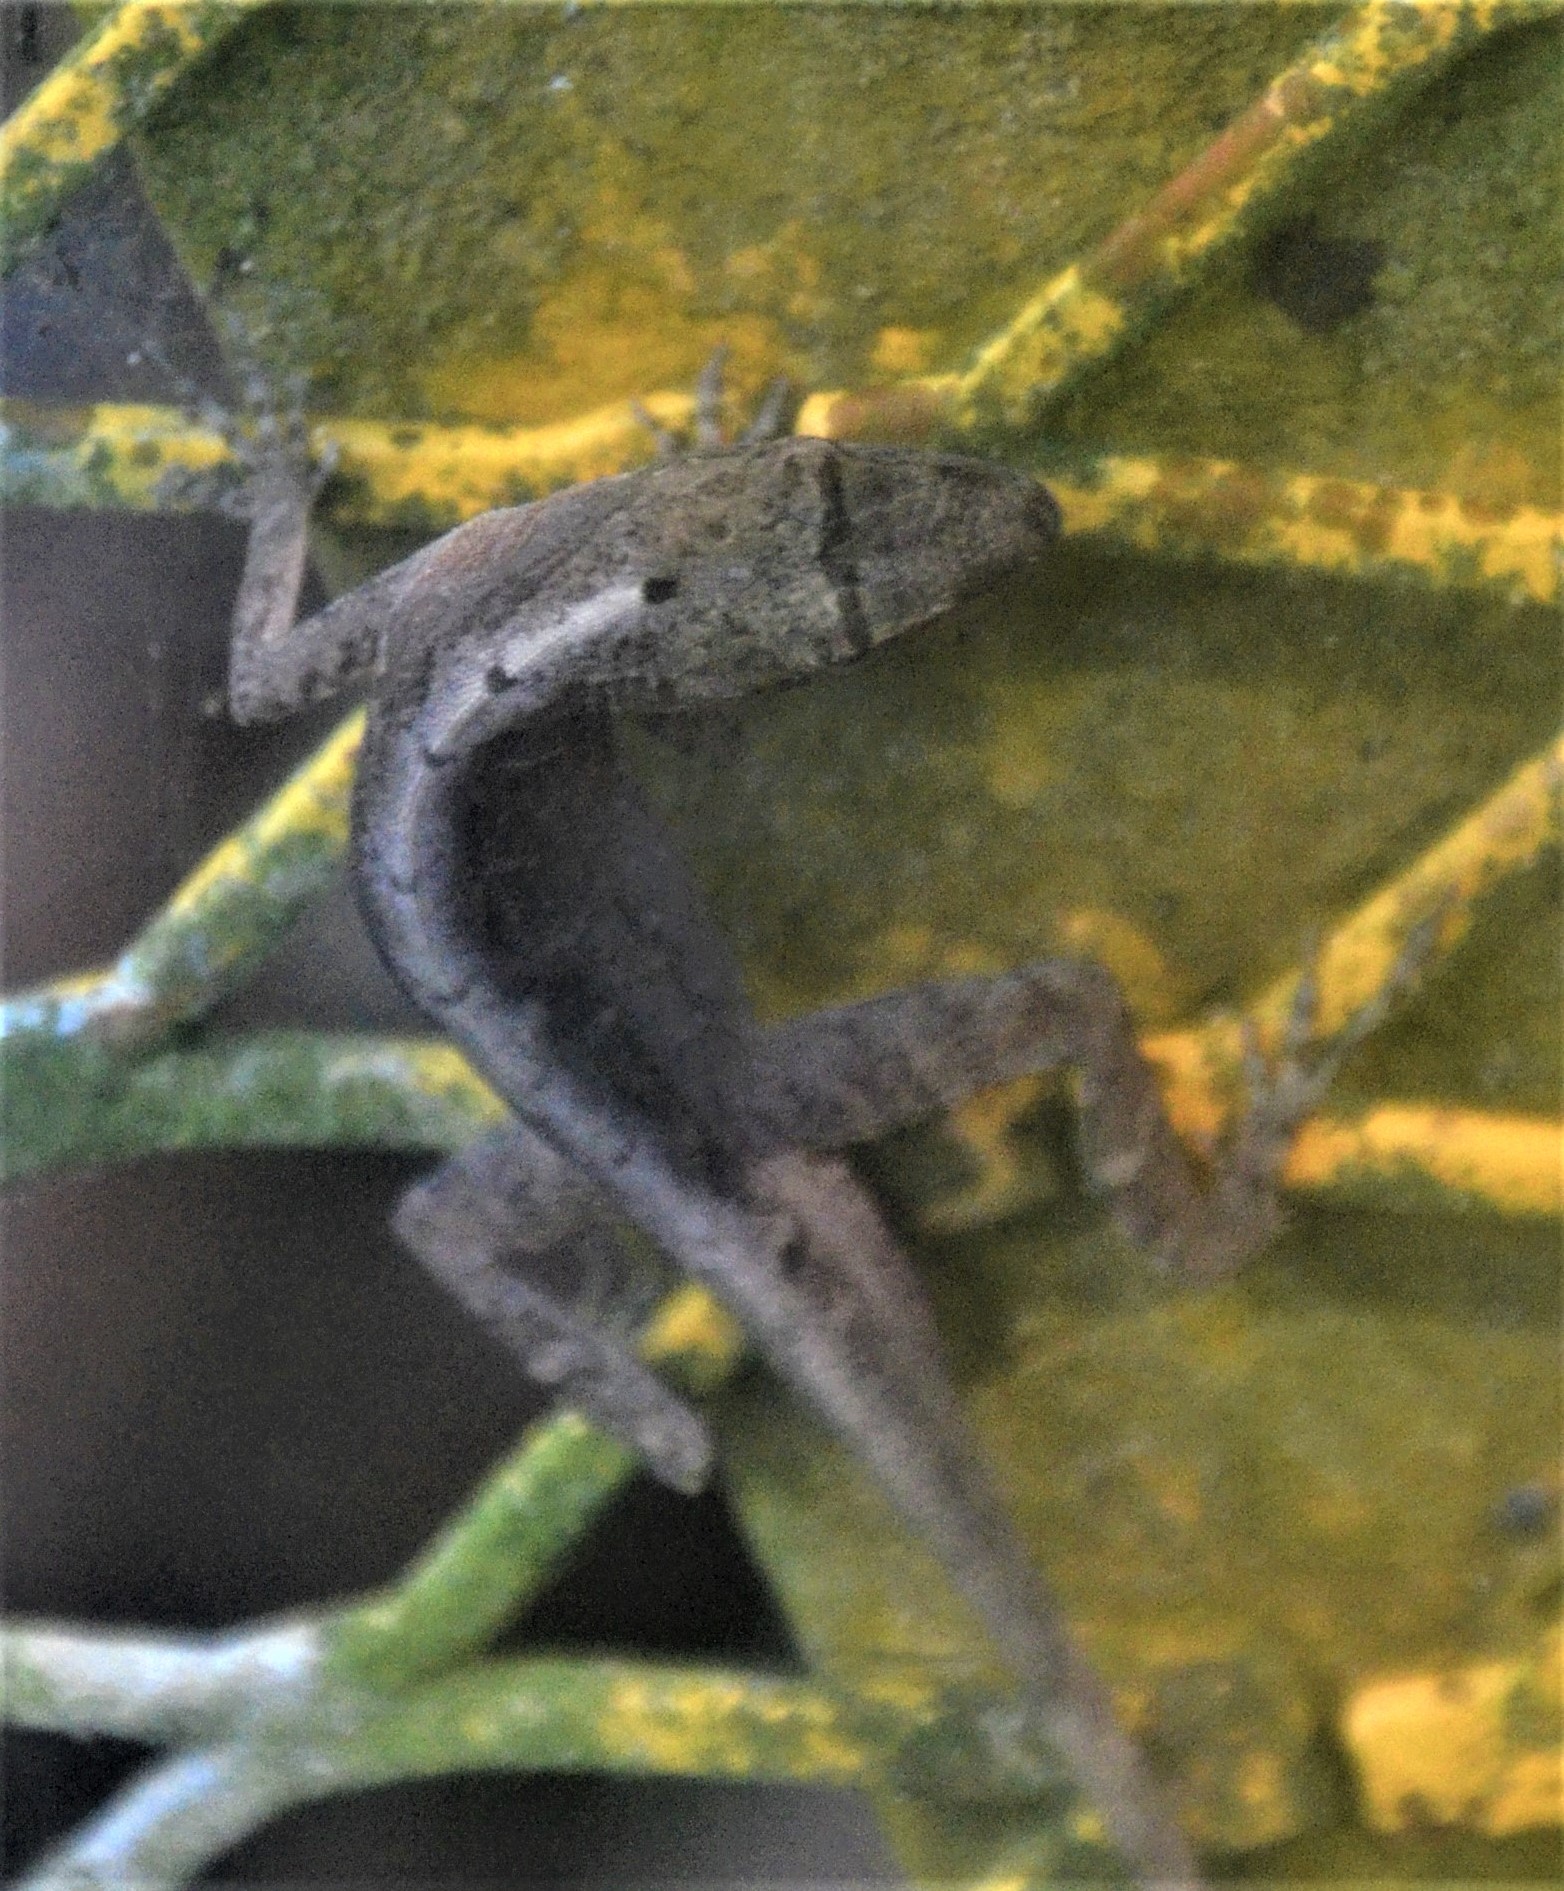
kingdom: Animalia
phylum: Chordata
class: Squamata
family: Dactyloidae
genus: Anolis
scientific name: Anolis cupreus
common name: Copper anole
